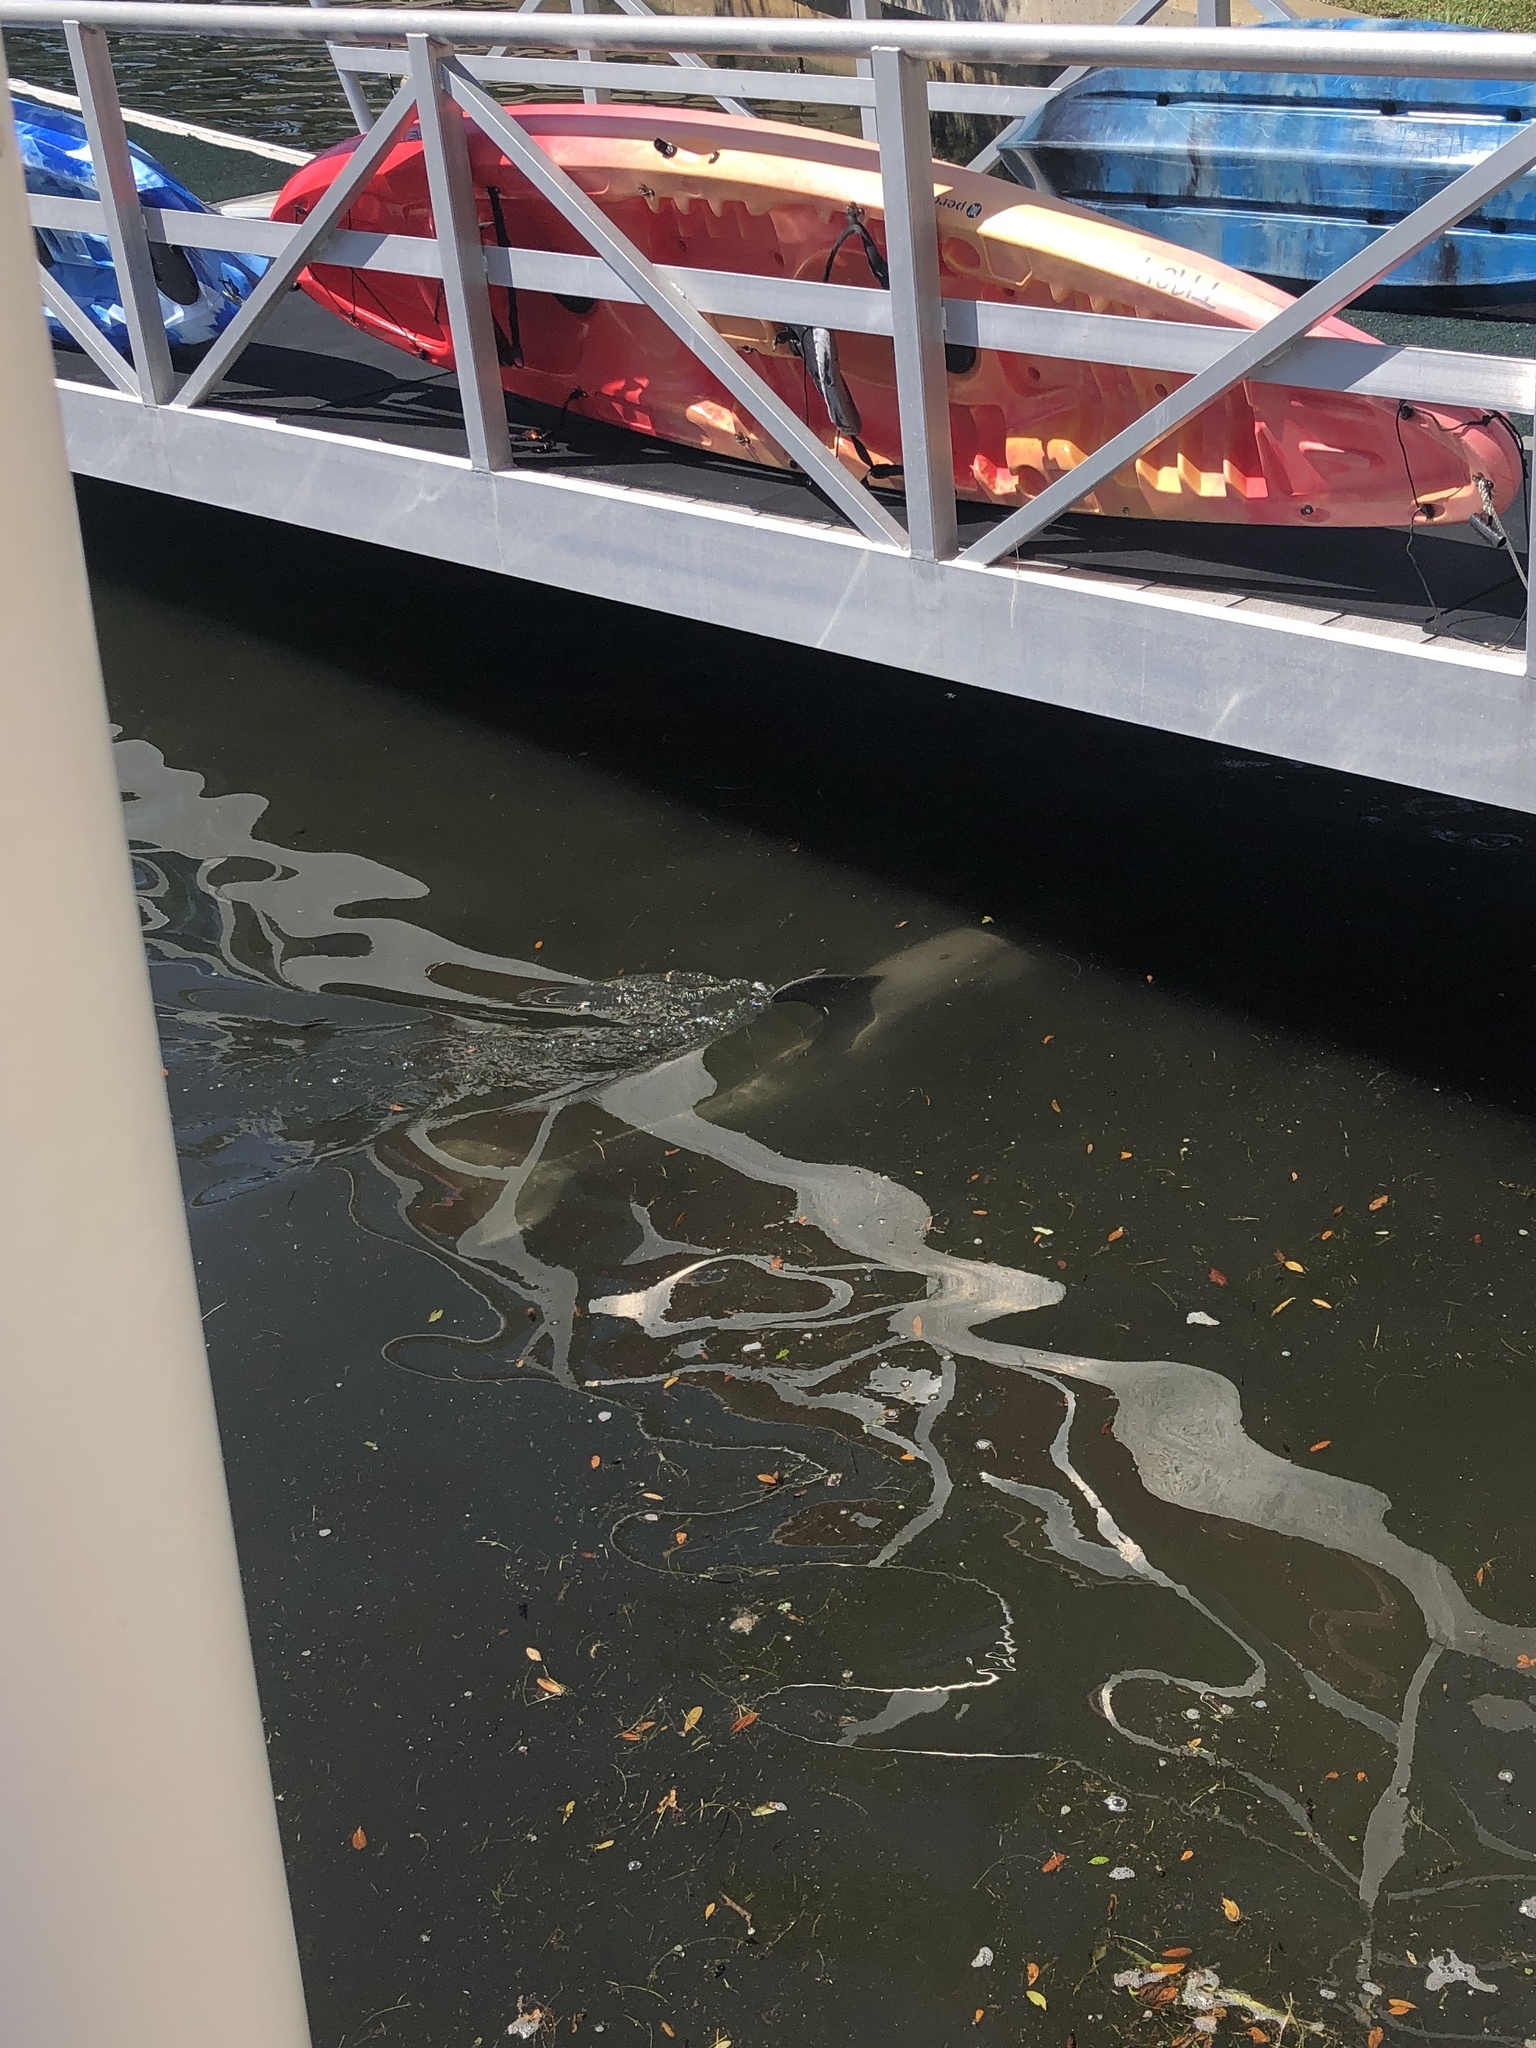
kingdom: Animalia
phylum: Chordata
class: Mammalia
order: Cetacea
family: Delphinidae
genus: Tursiops
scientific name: Tursiops truncatus
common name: Bottlenose dolphin
